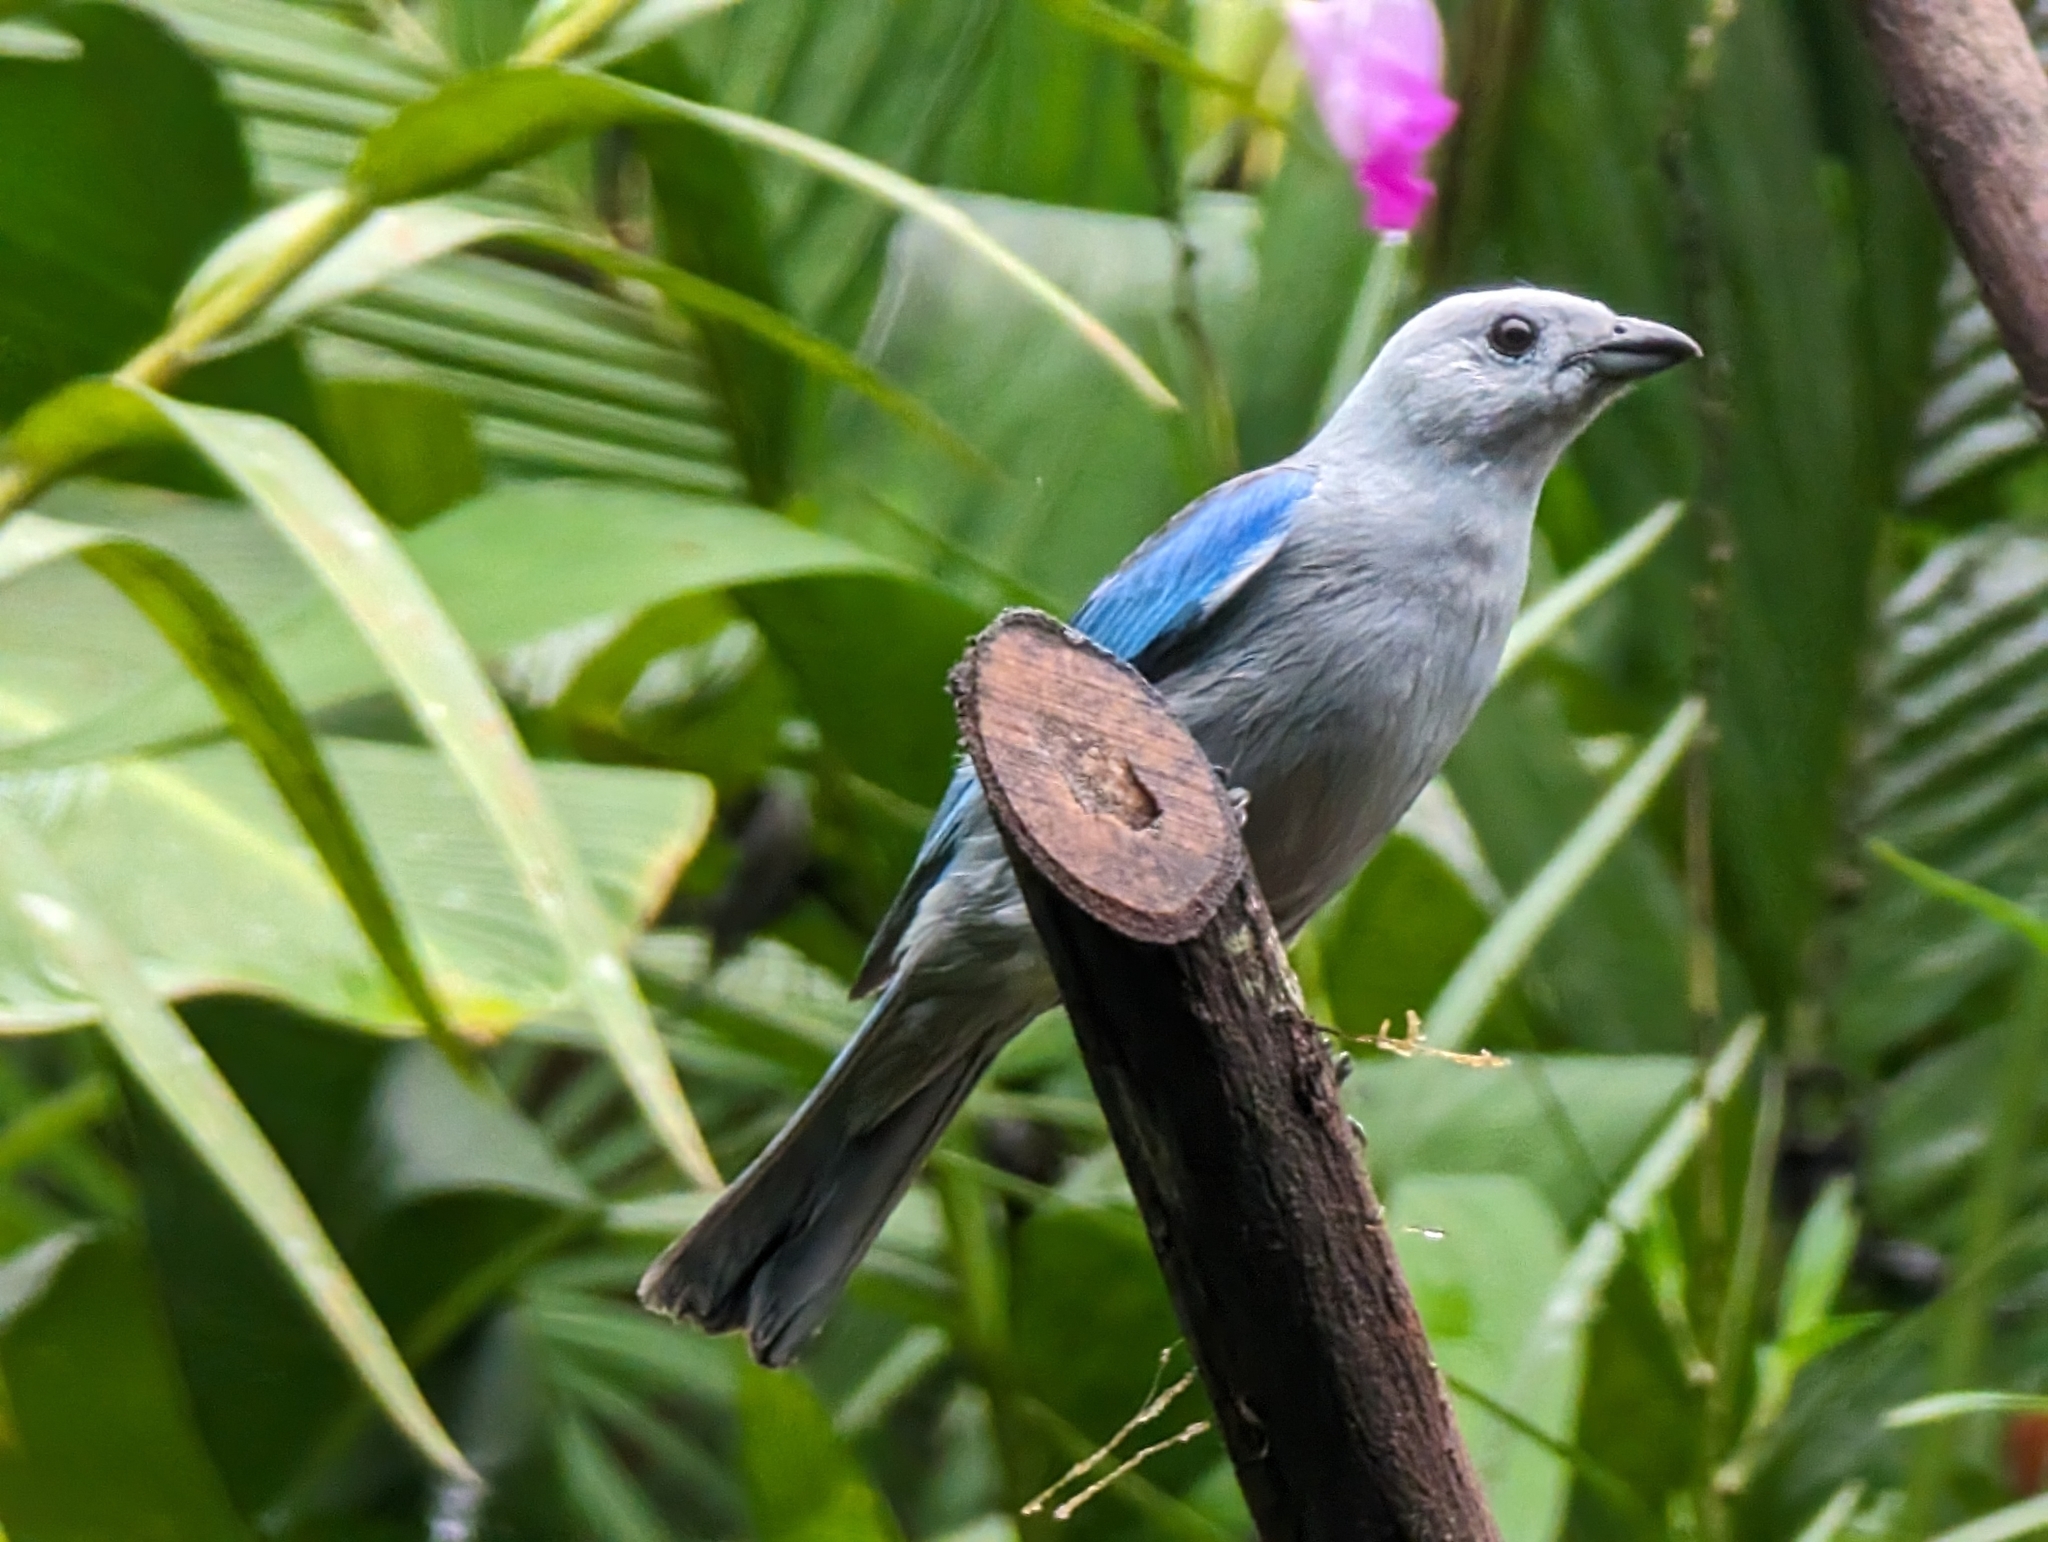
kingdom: Animalia
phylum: Chordata
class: Aves
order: Passeriformes
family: Thraupidae
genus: Thraupis
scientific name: Thraupis episcopus
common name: Blue-grey tanager
